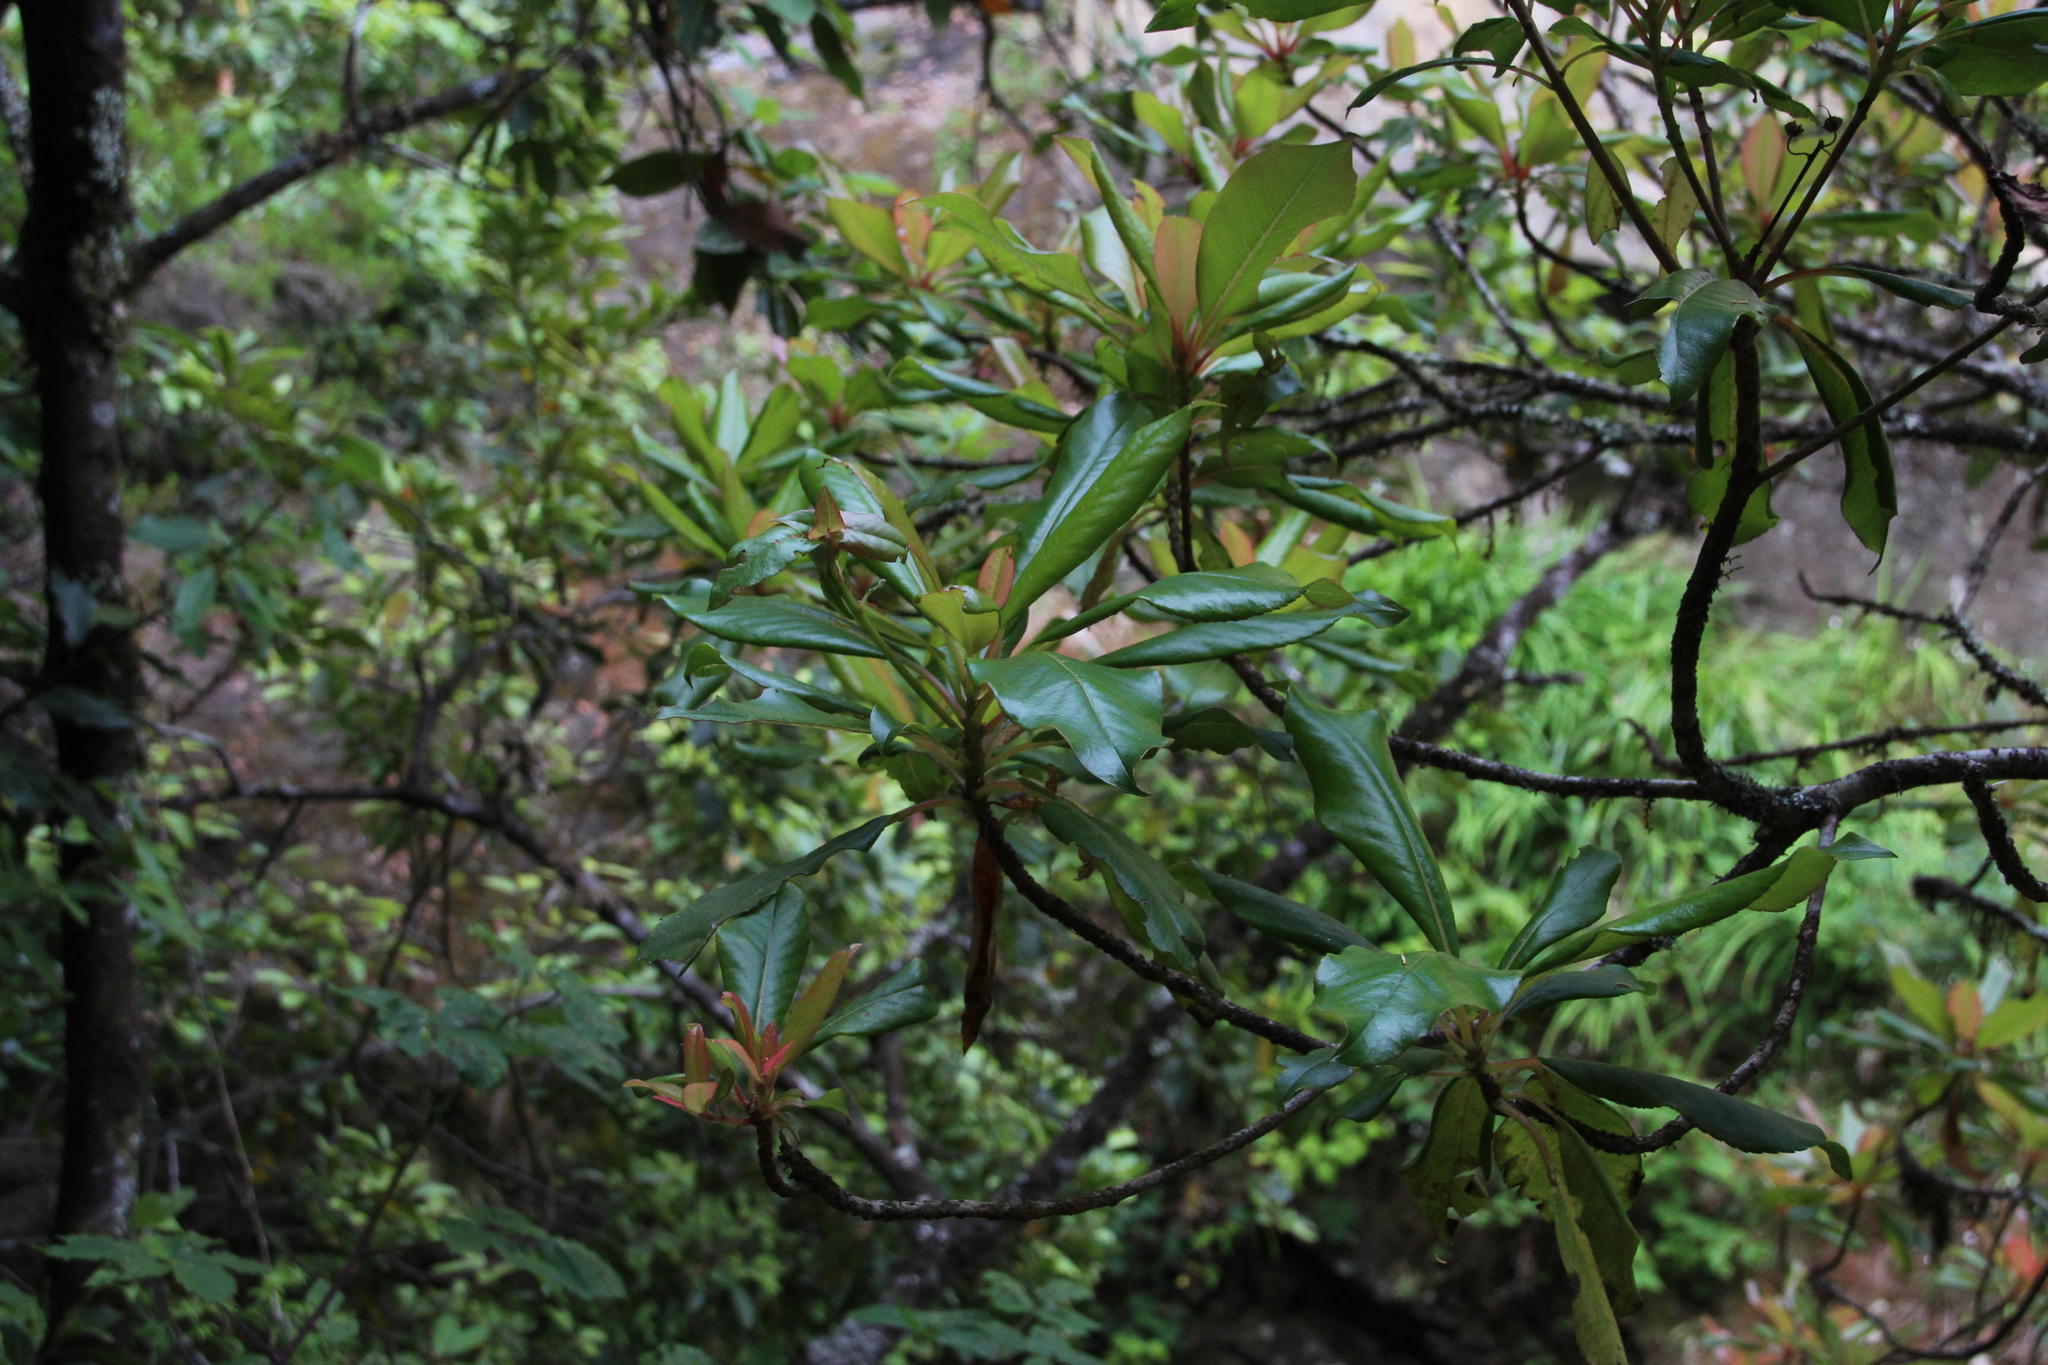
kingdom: Plantae
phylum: Tracheophyta
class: Magnoliopsida
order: Ericales
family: Clethraceae
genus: Clethra
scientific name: Clethra arborea
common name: Lily-of-the-valley-tree
